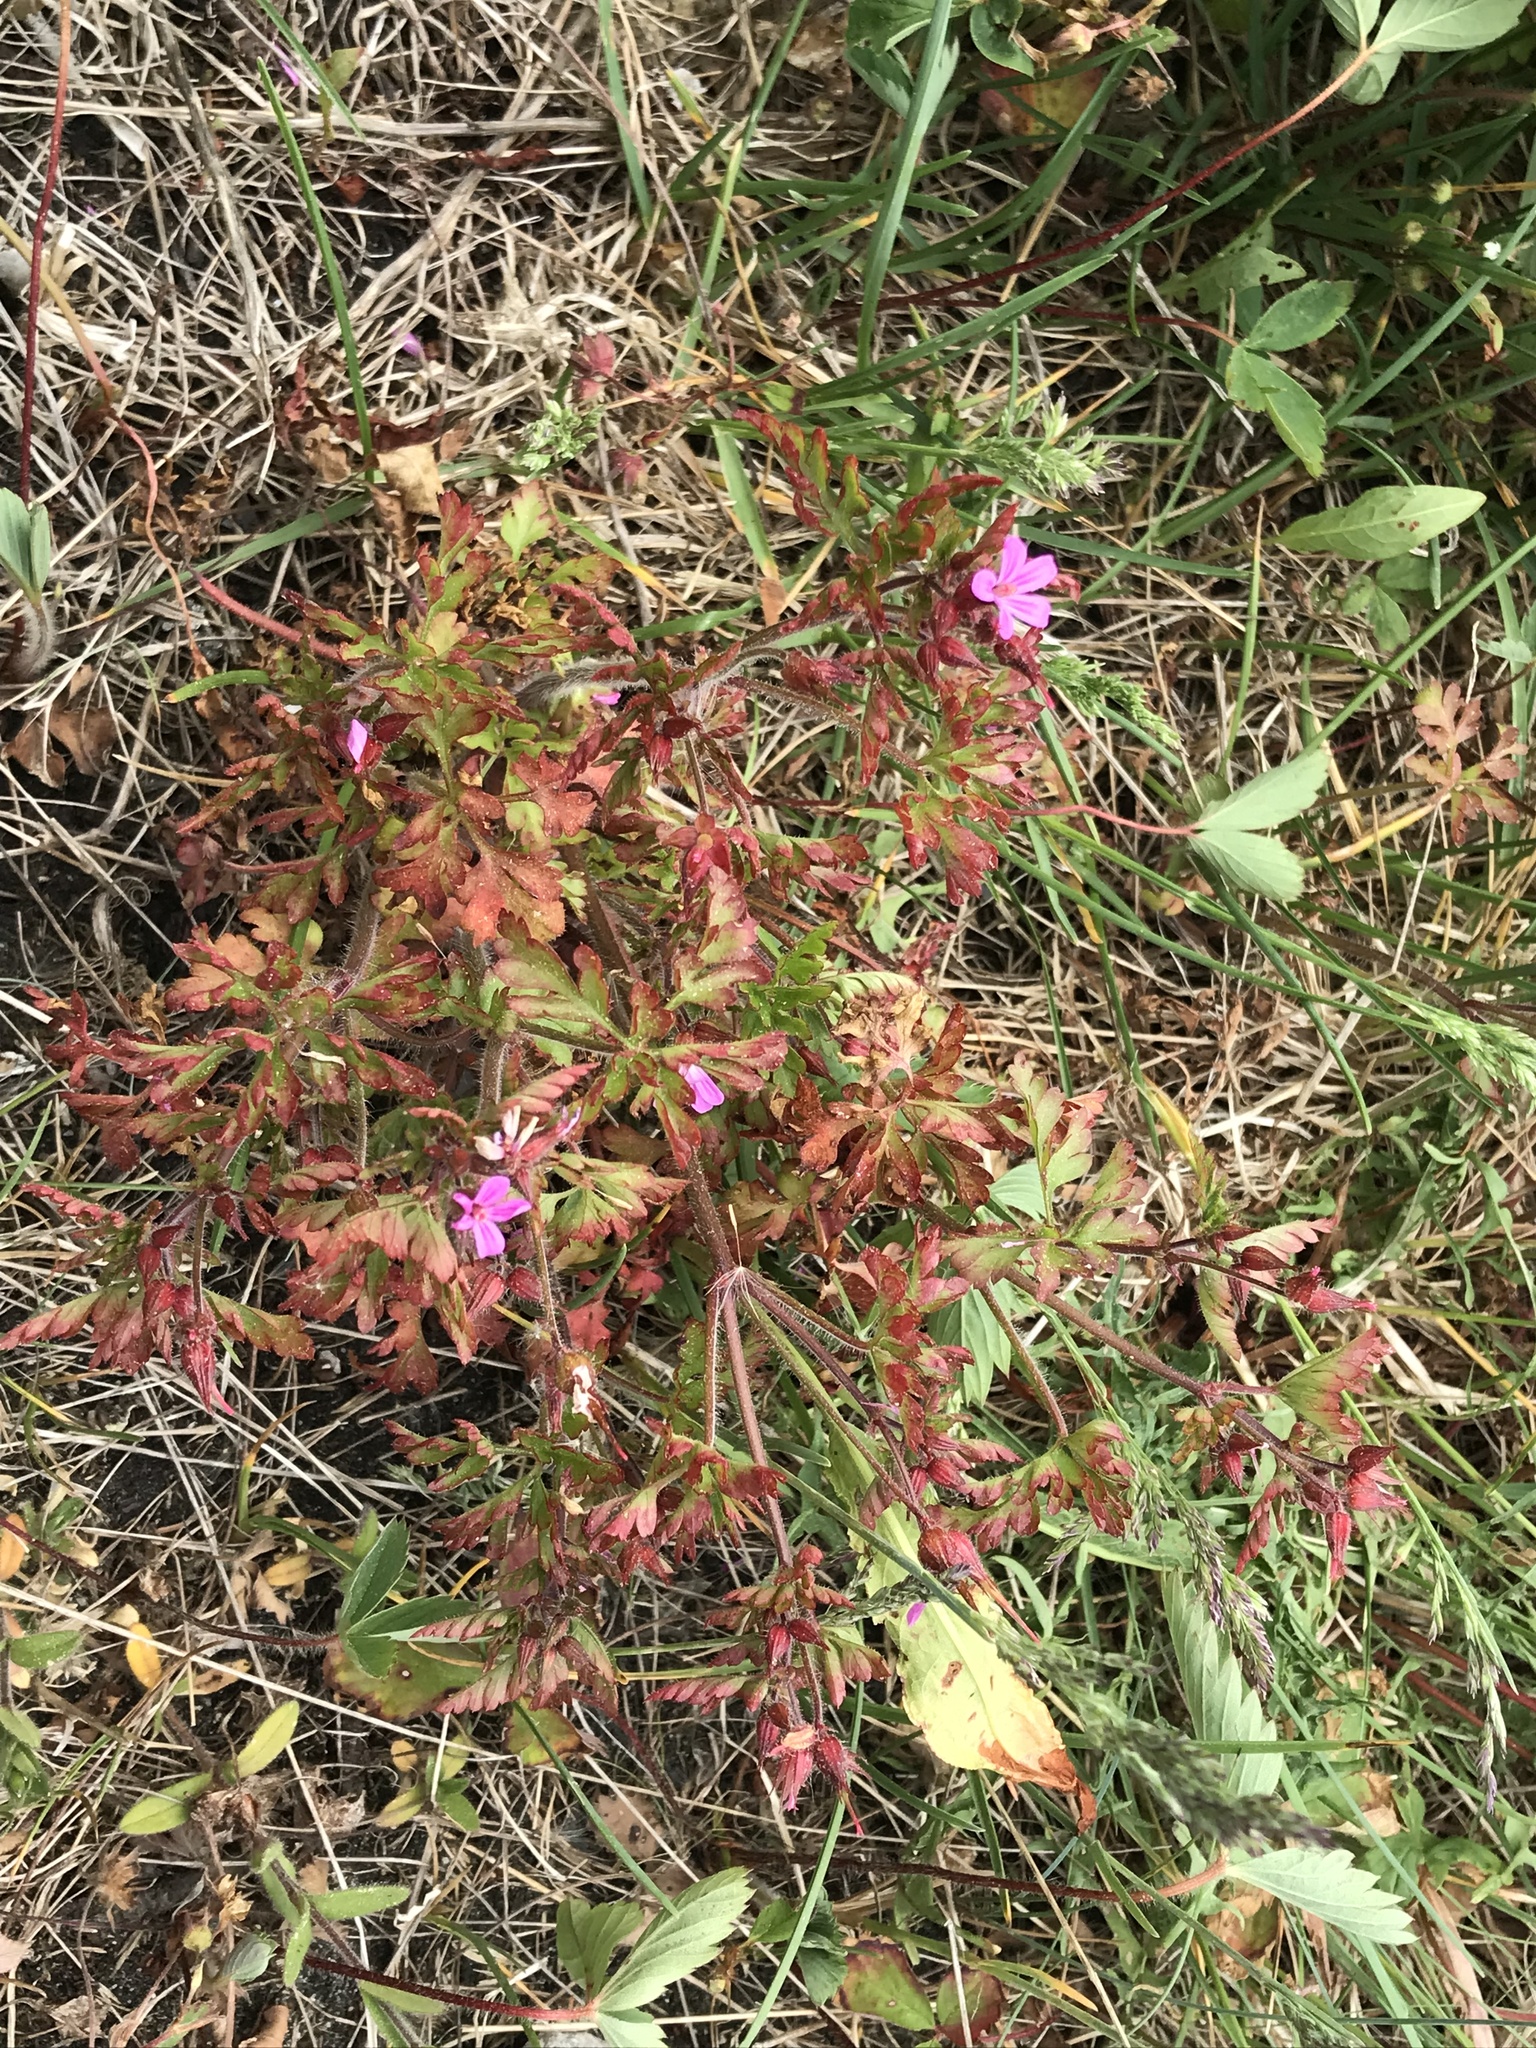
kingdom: Plantae
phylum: Tracheophyta
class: Magnoliopsida
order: Geraniales
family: Geraniaceae
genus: Geranium
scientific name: Geranium robertianum
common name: Herb-robert
